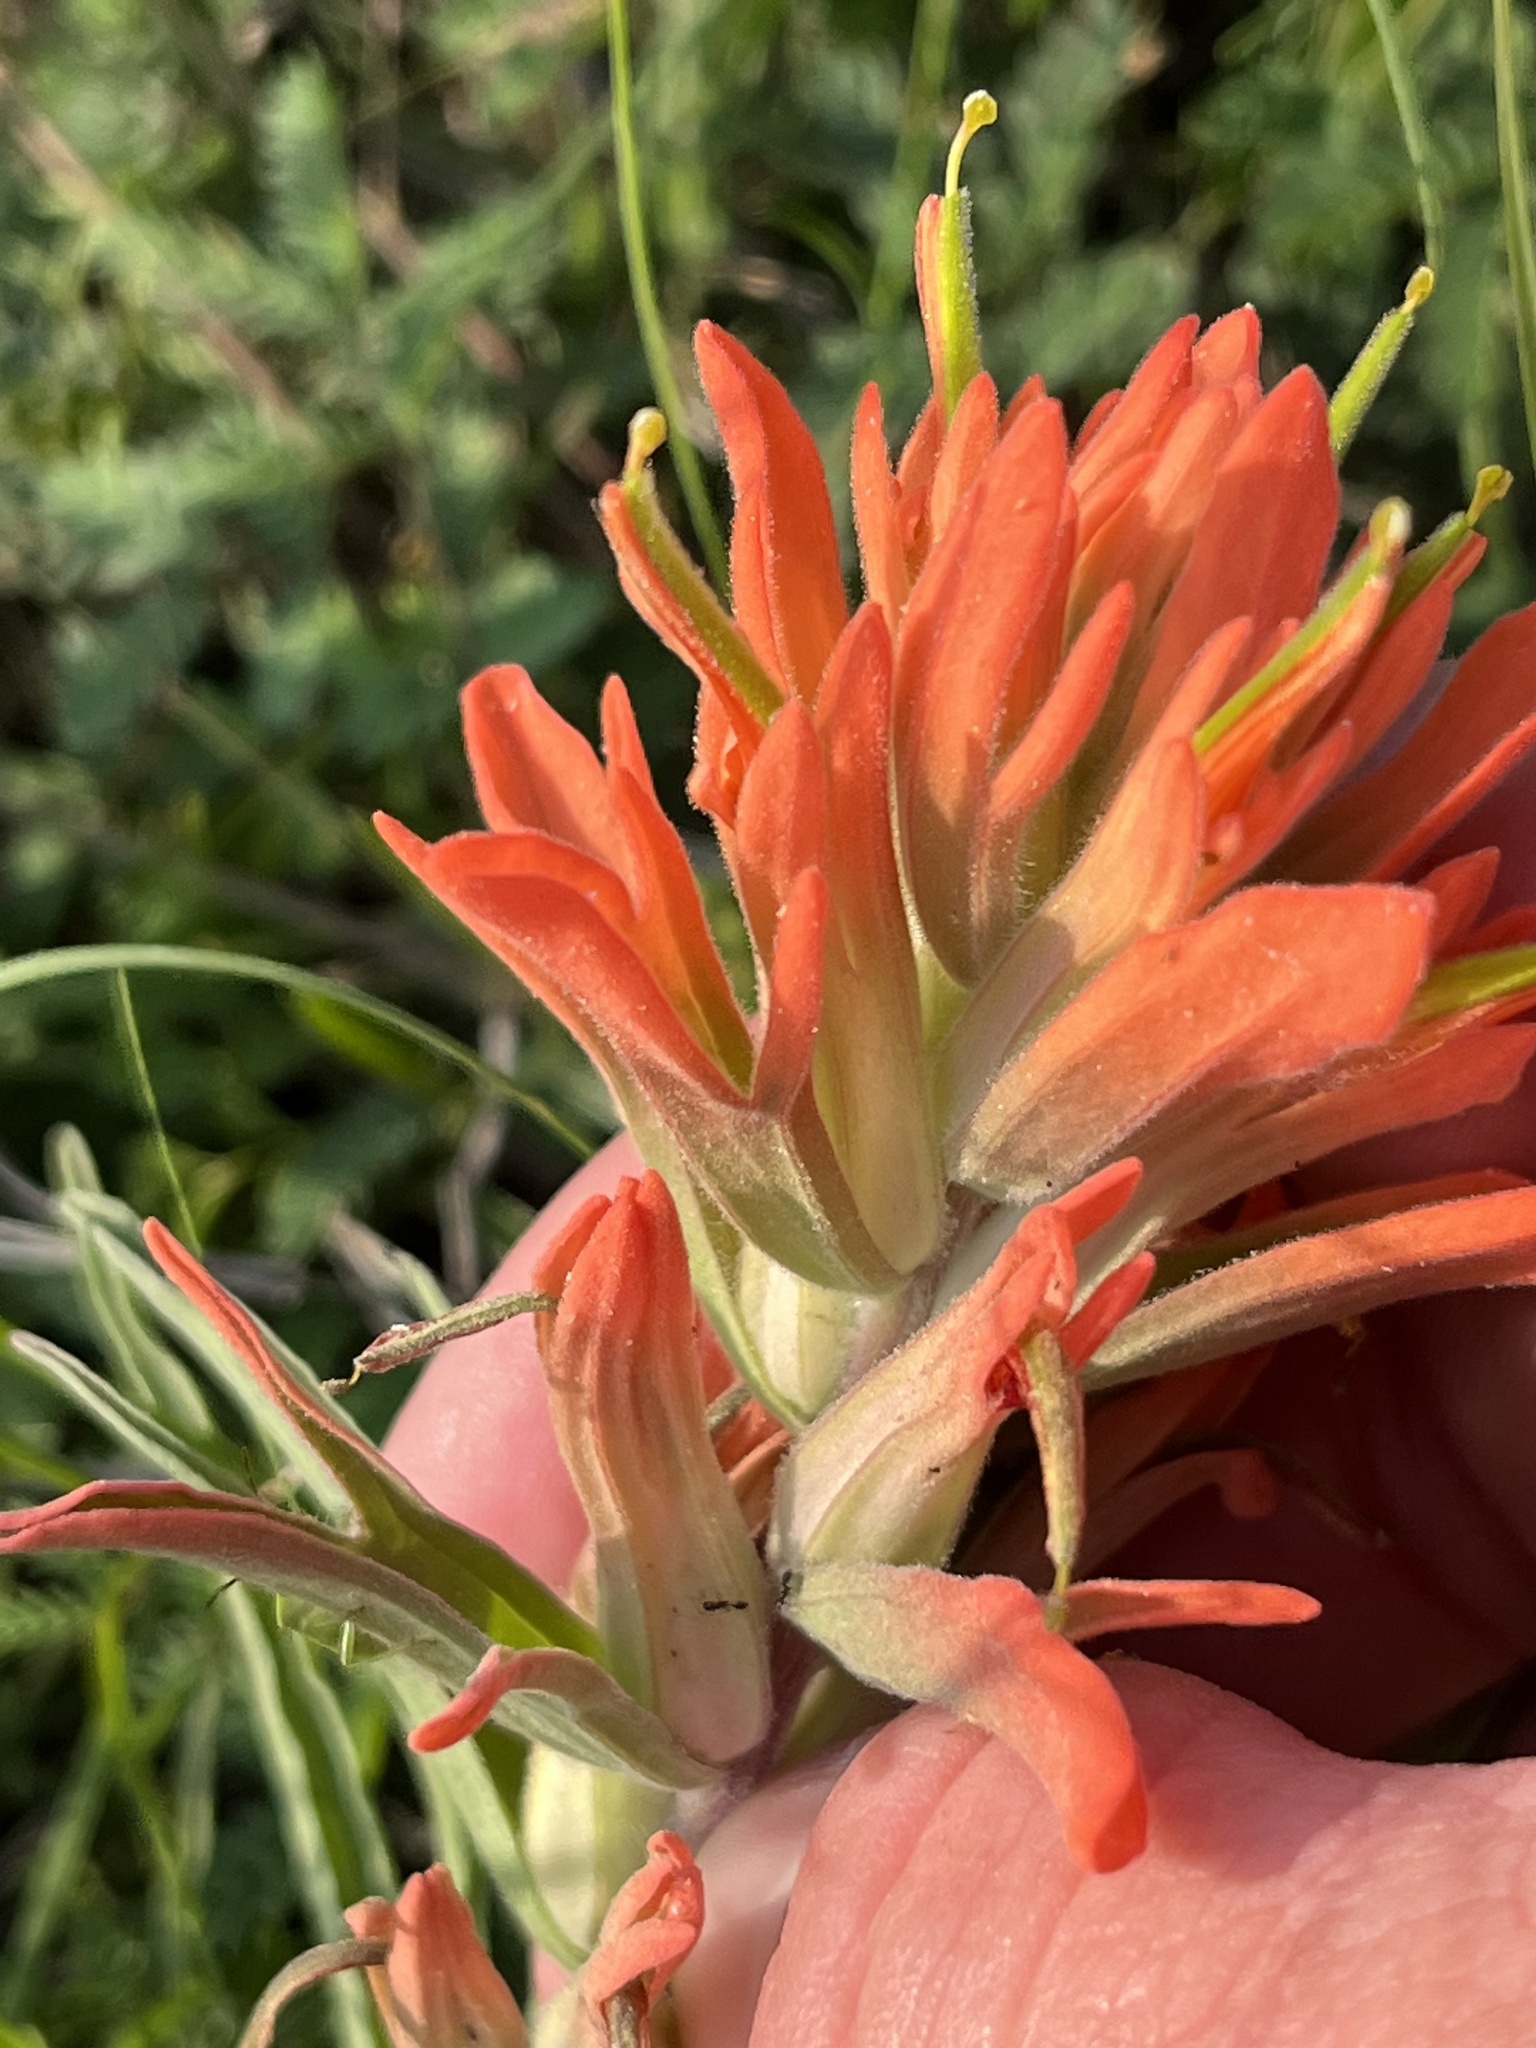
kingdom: Plantae
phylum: Tracheophyta
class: Magnoliopsida
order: Lamiales
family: Orobanchaceae
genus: Castilleja
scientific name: Castilleja lindheimeri
